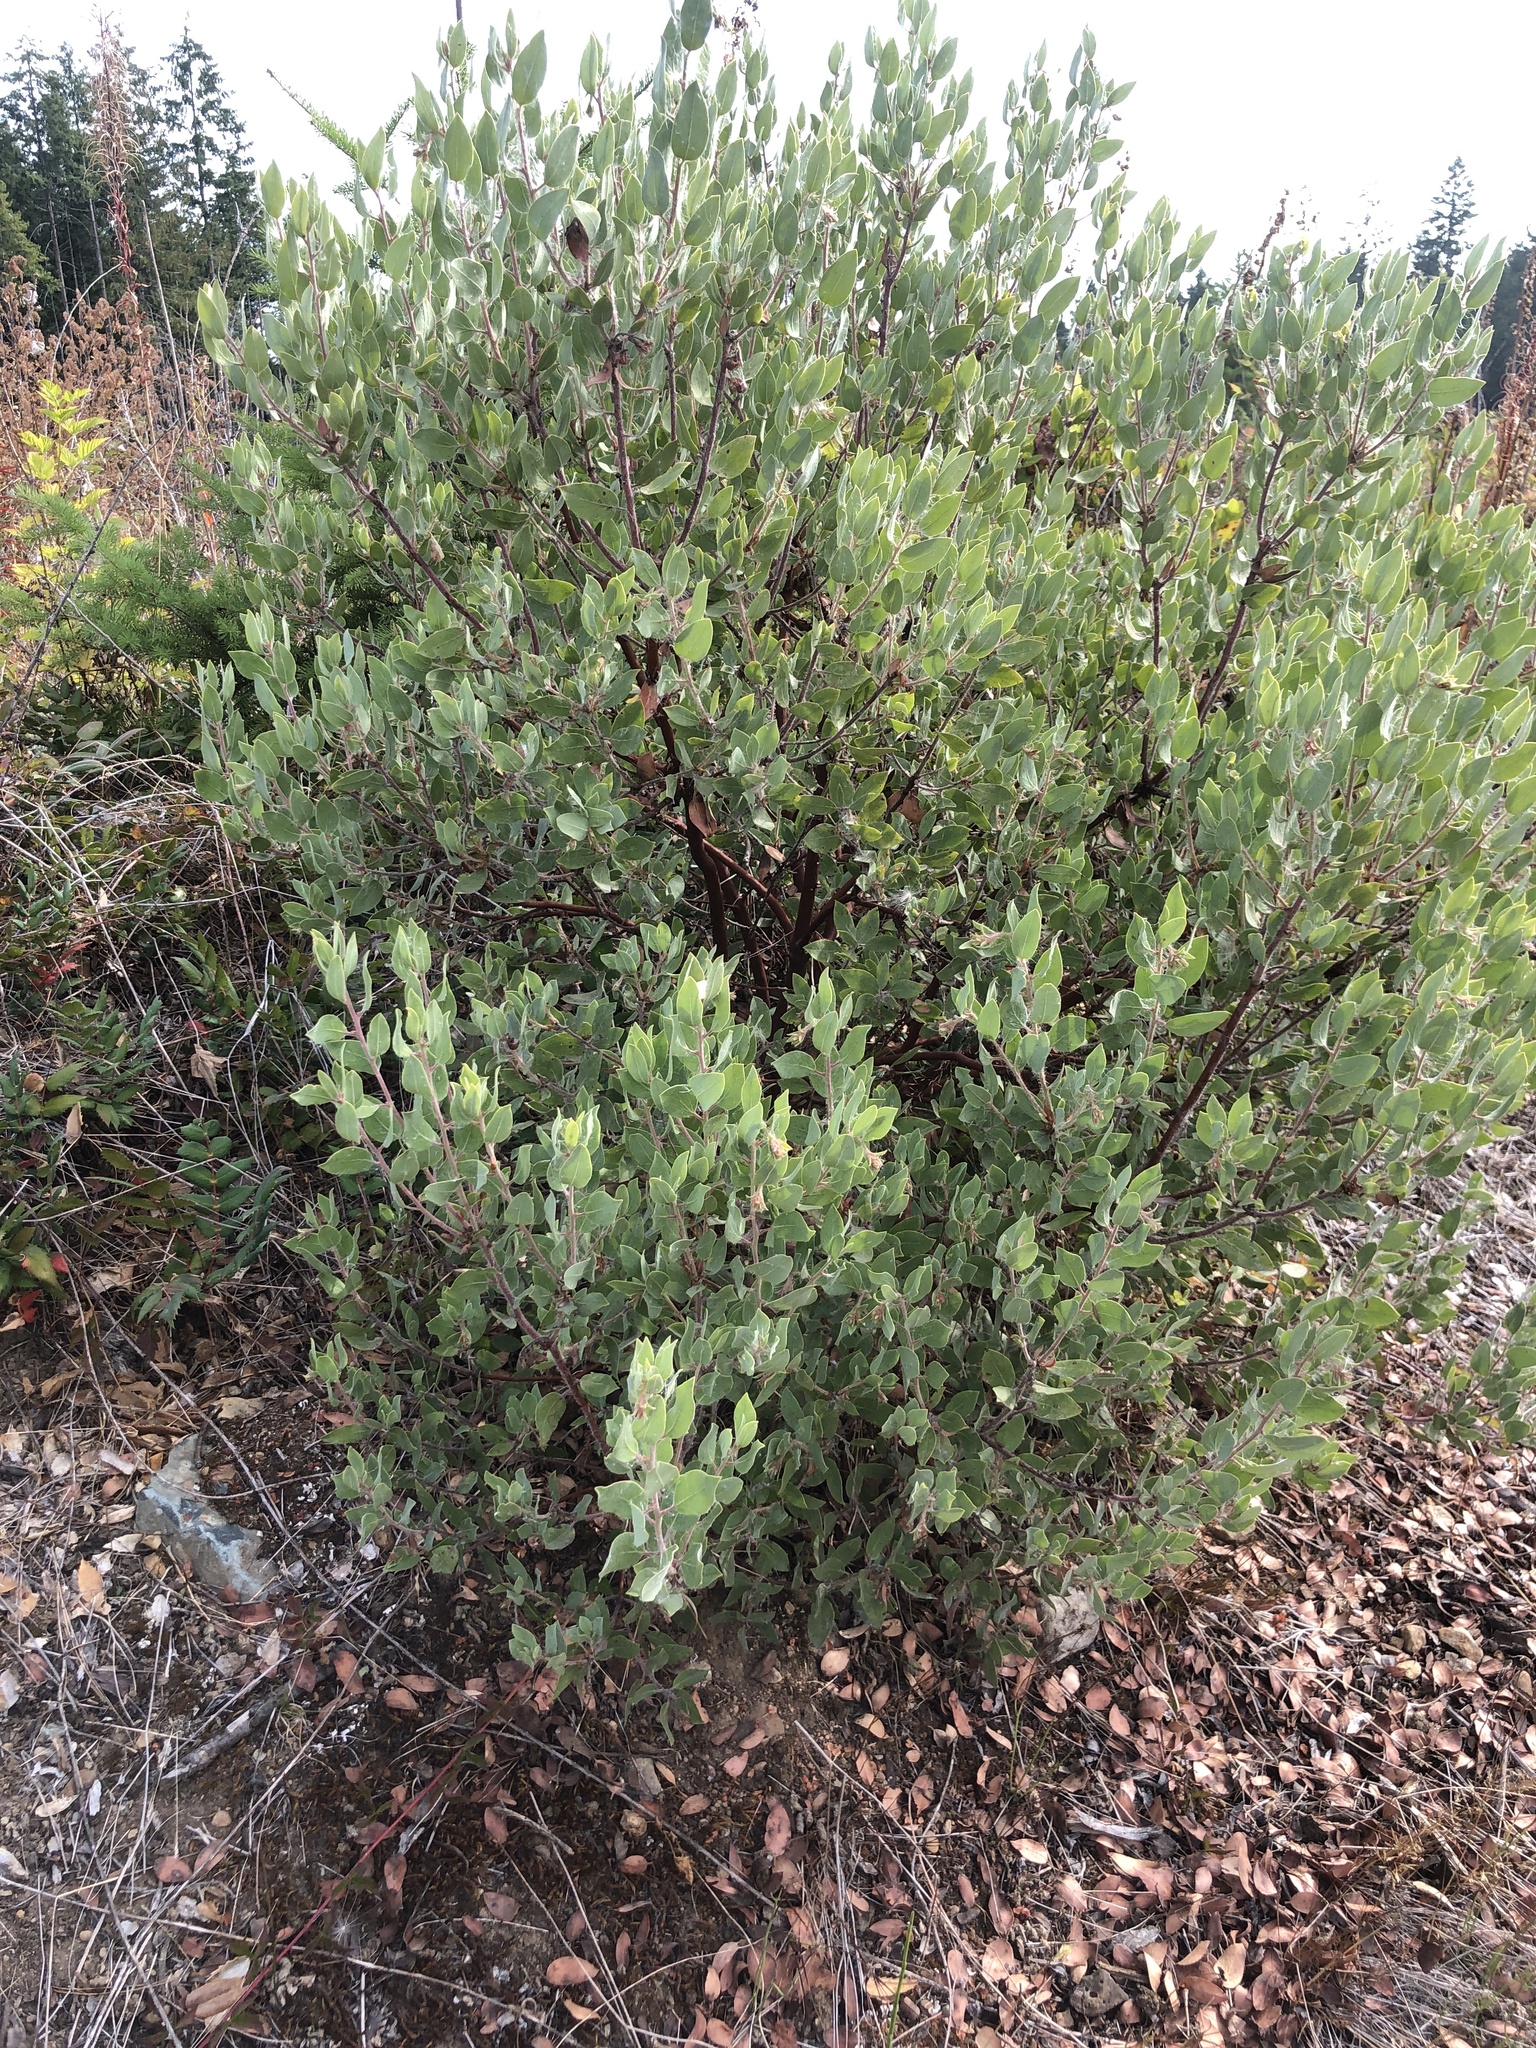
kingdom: Plantae
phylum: Tracheophyta
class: Magnoliopsida
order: Ericales
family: Ericaceae
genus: Arctostaphylos
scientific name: Arctostaphylos columbiana
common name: Bristly bearberry
